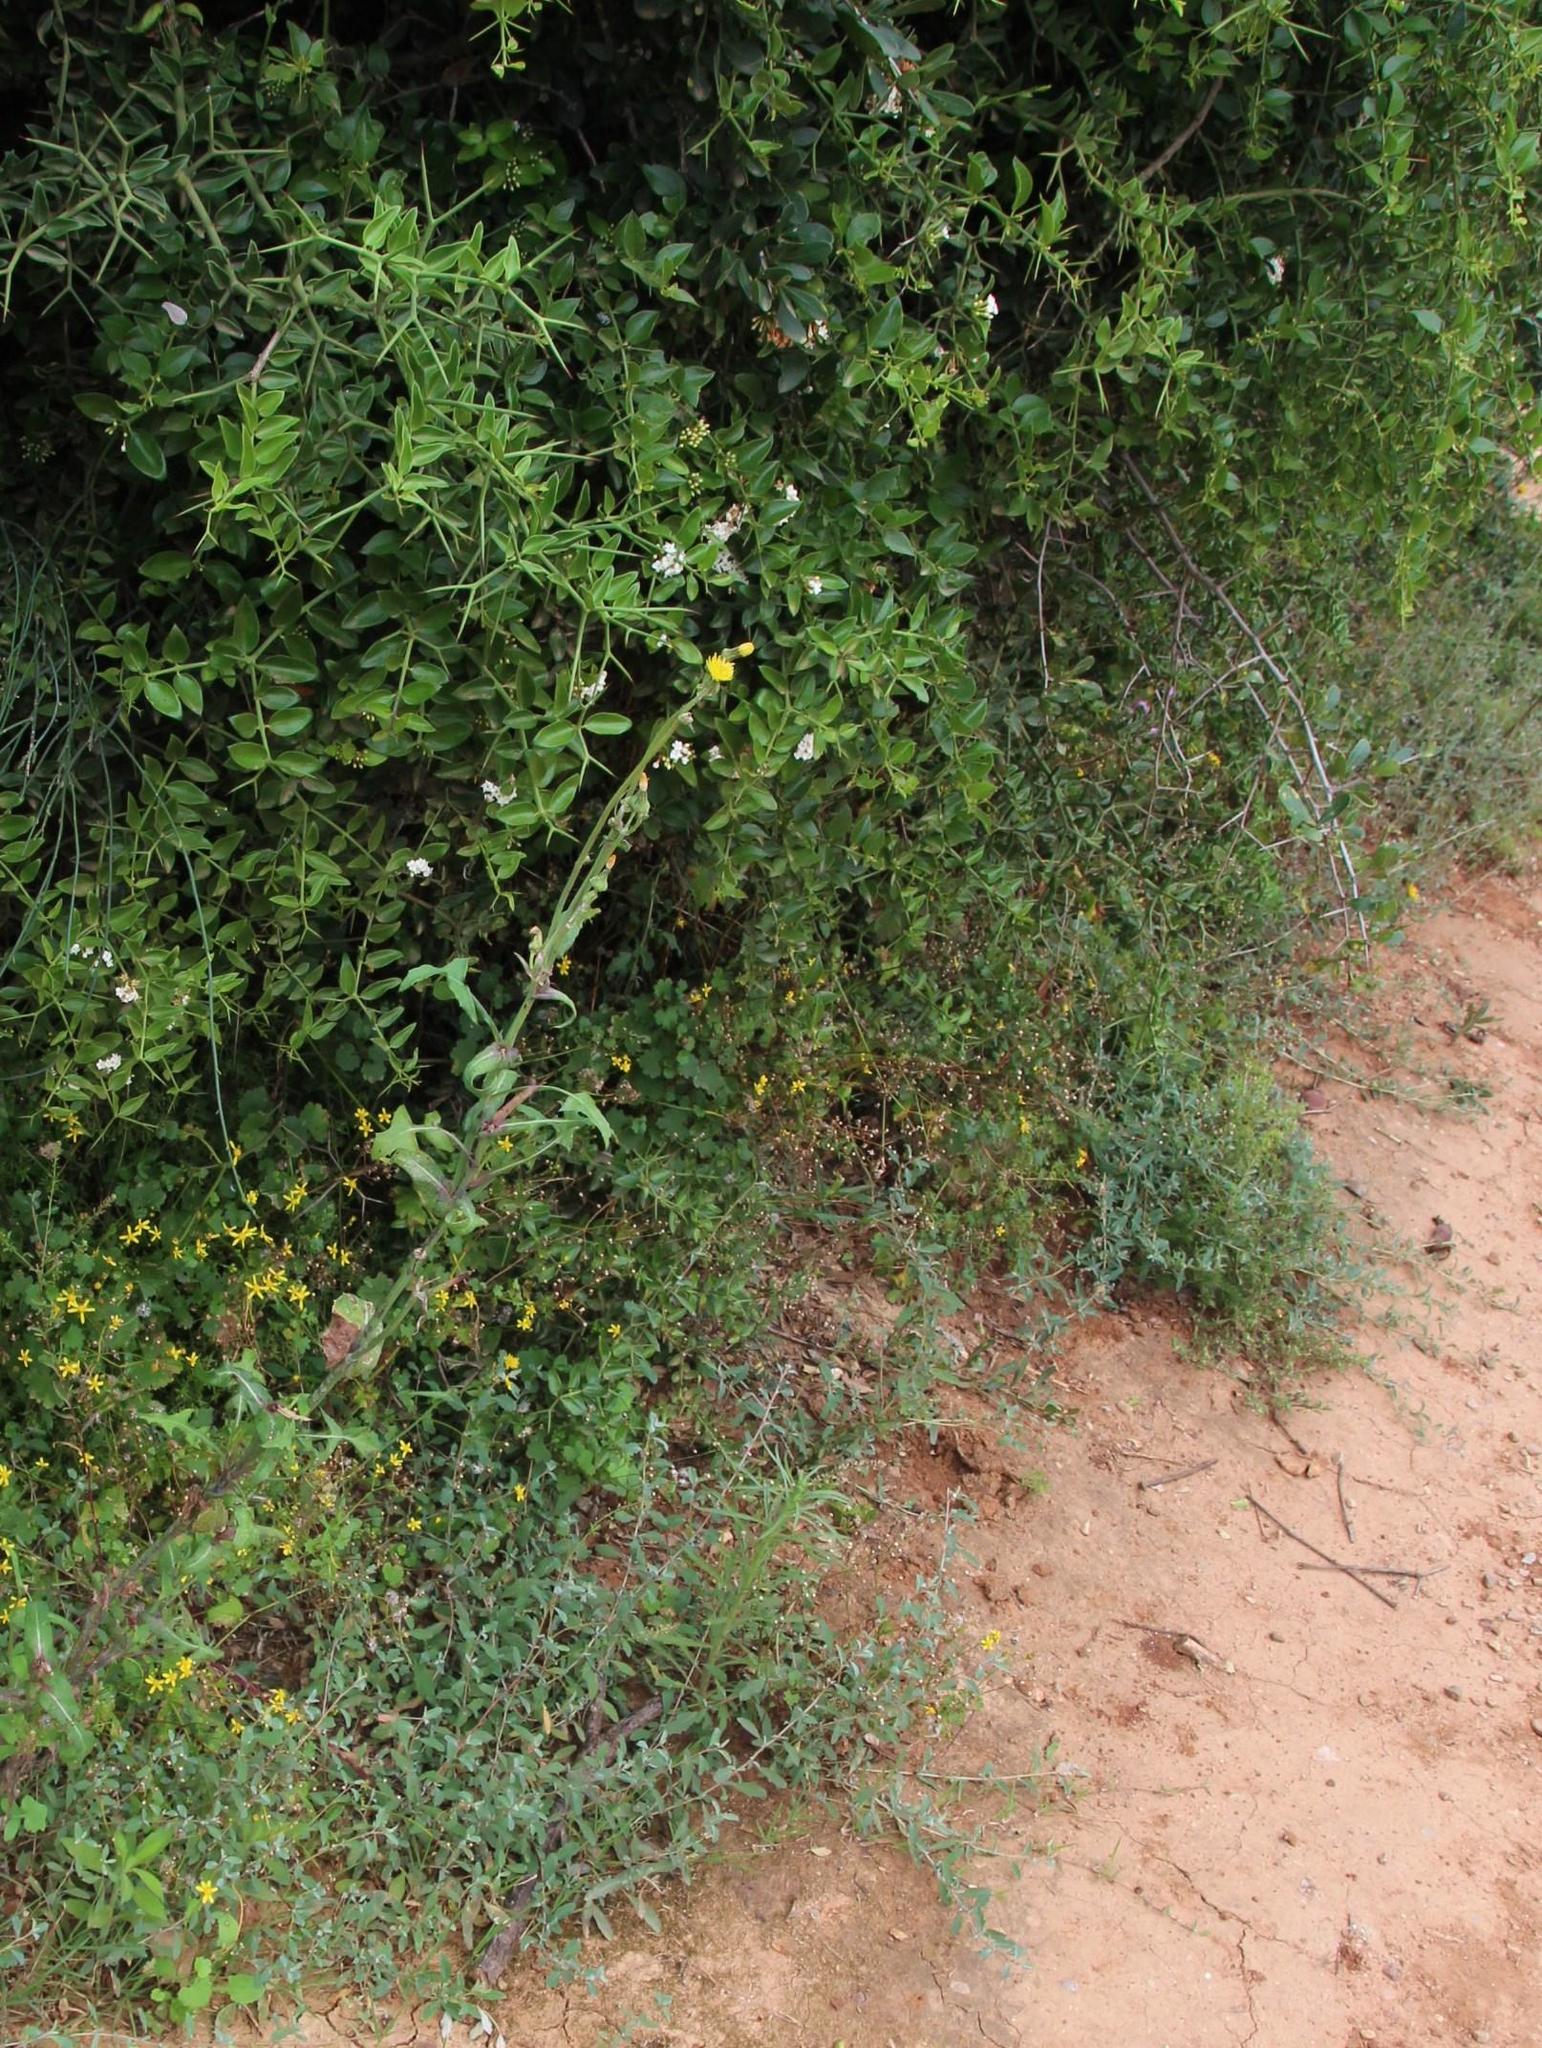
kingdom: Plantae
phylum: Tracheophyta
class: Magnoliopsida
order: Asterales
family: Asteraceae
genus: Sonchus
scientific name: Sonchus oleraceus
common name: Common sowthistle
